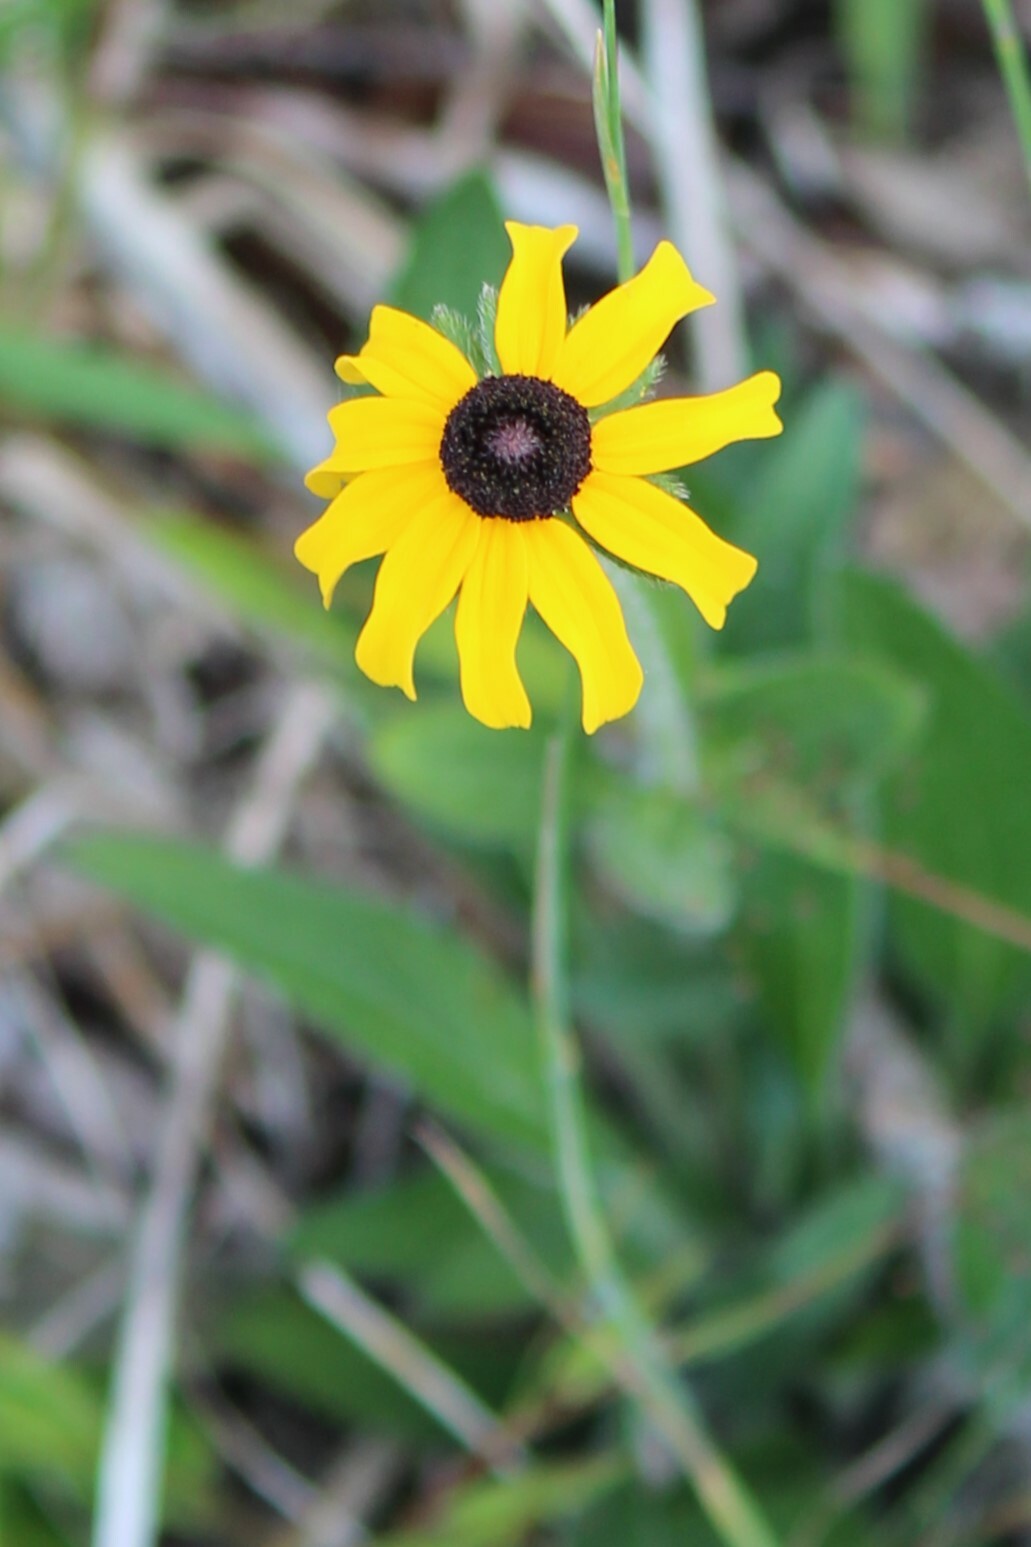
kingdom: Plantae
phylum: Tracheophyta
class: Magnoliopsida
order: Asterales
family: Asteraceae
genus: Rudbeckia
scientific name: Rudbeckia hirta
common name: Black-eyed-susan
